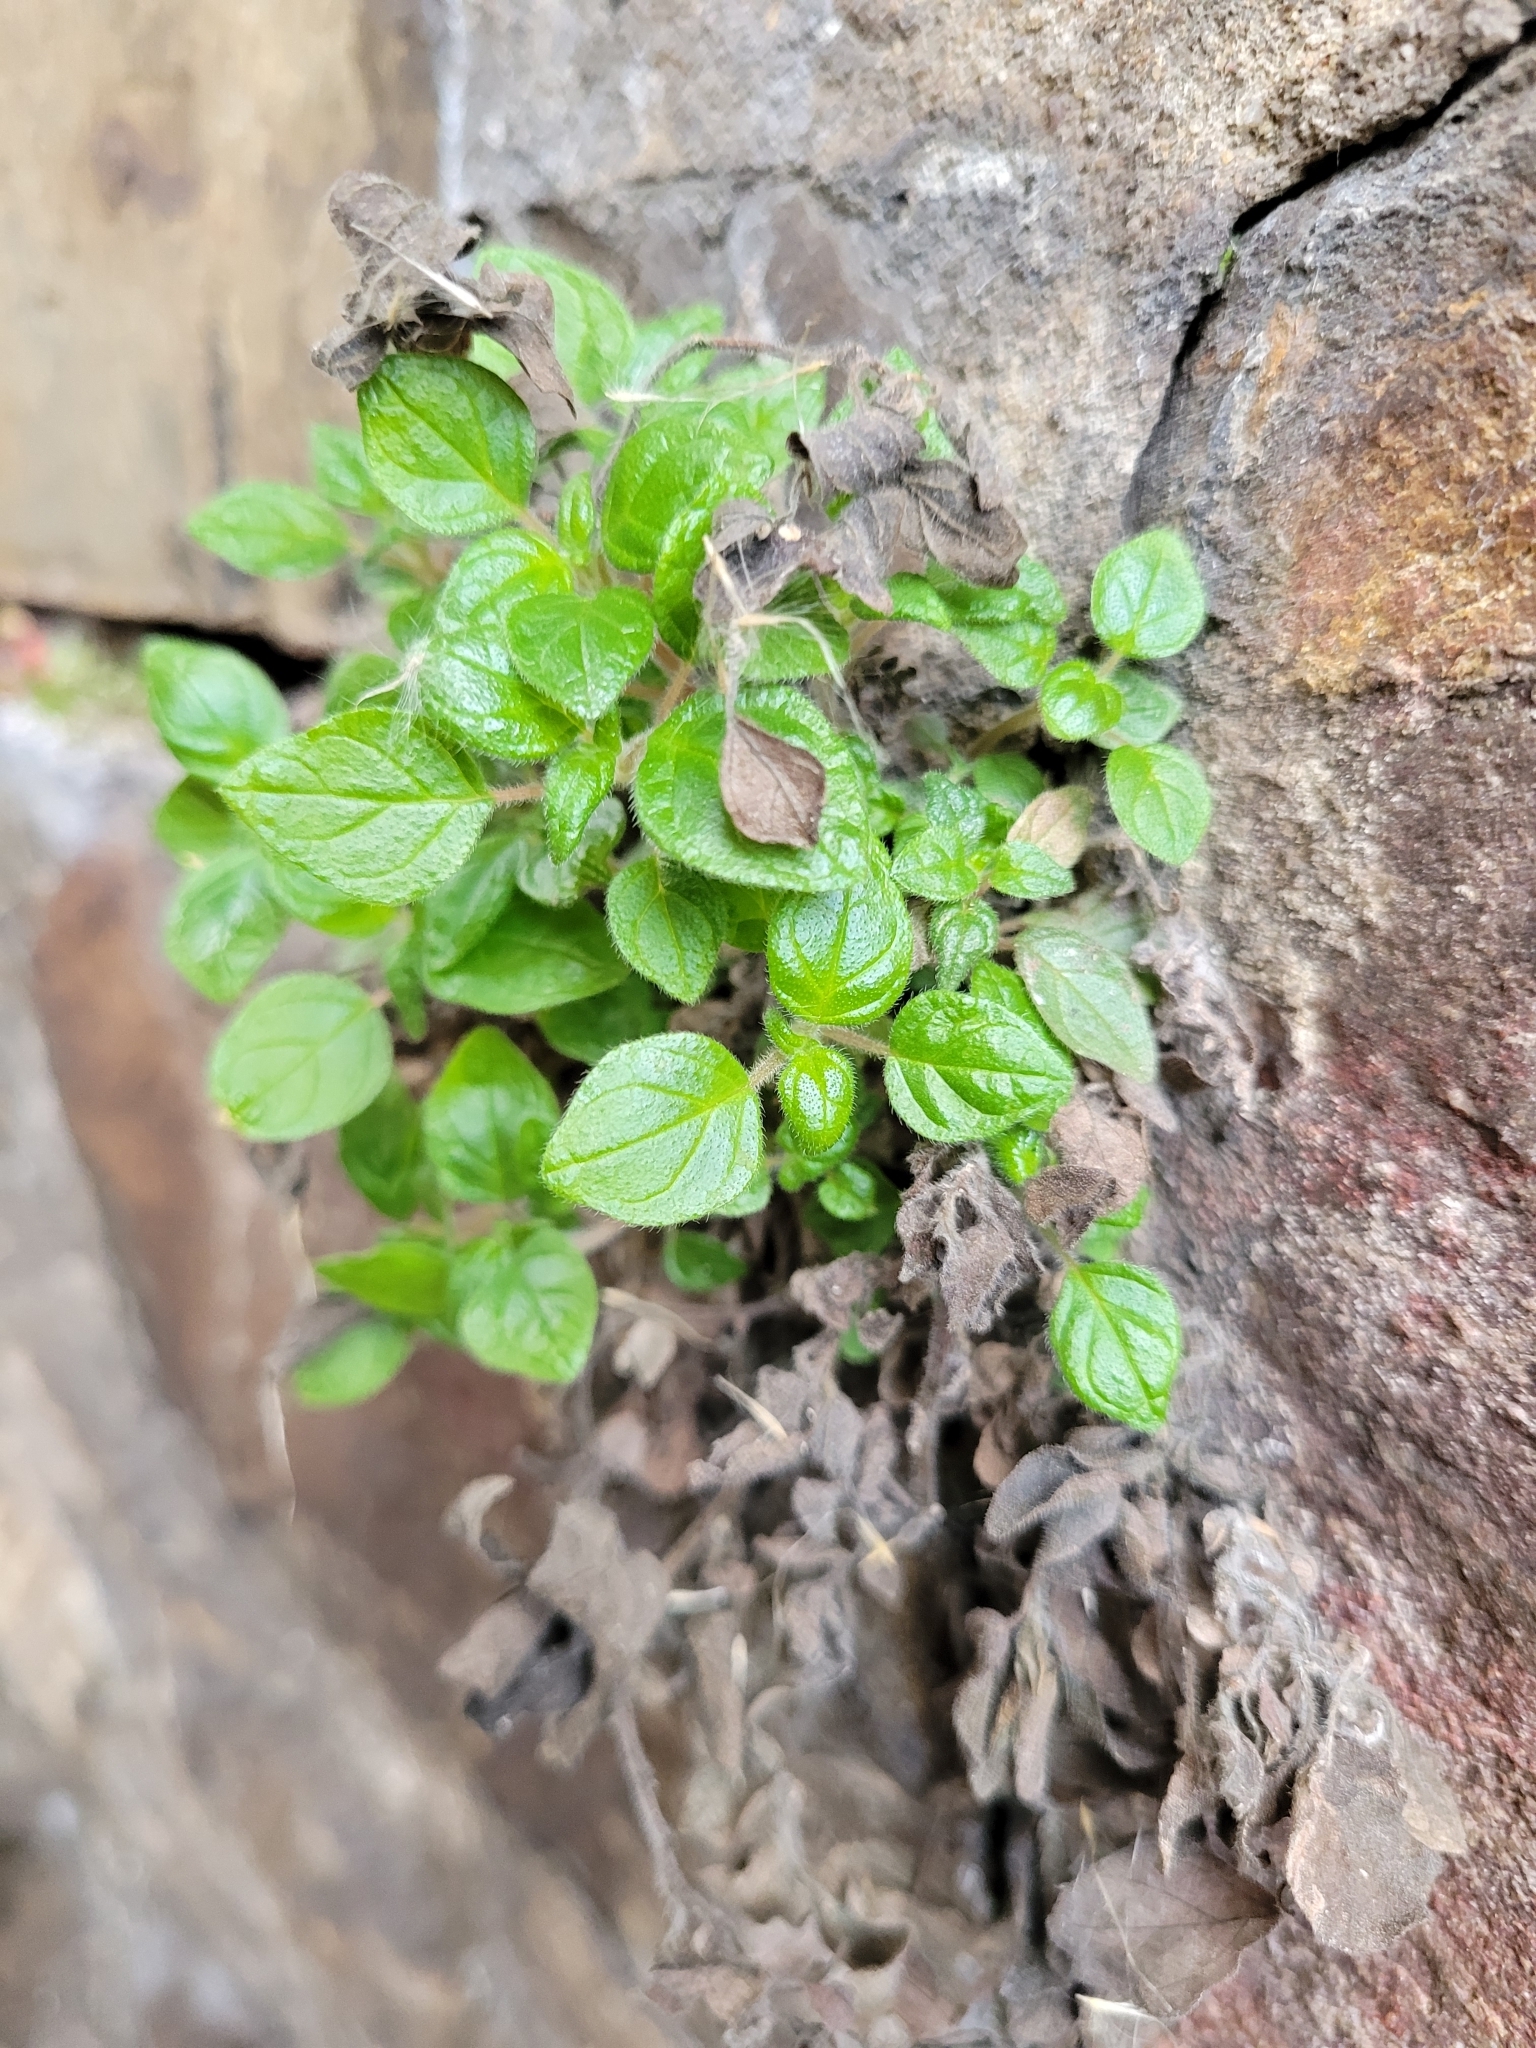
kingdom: Plantae
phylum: Tracheophyta
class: Magnoliopsida
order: Rosales
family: Urticaceae
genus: Parietaria
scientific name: Parietaria judaica
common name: Pellitory-of-the-wall
